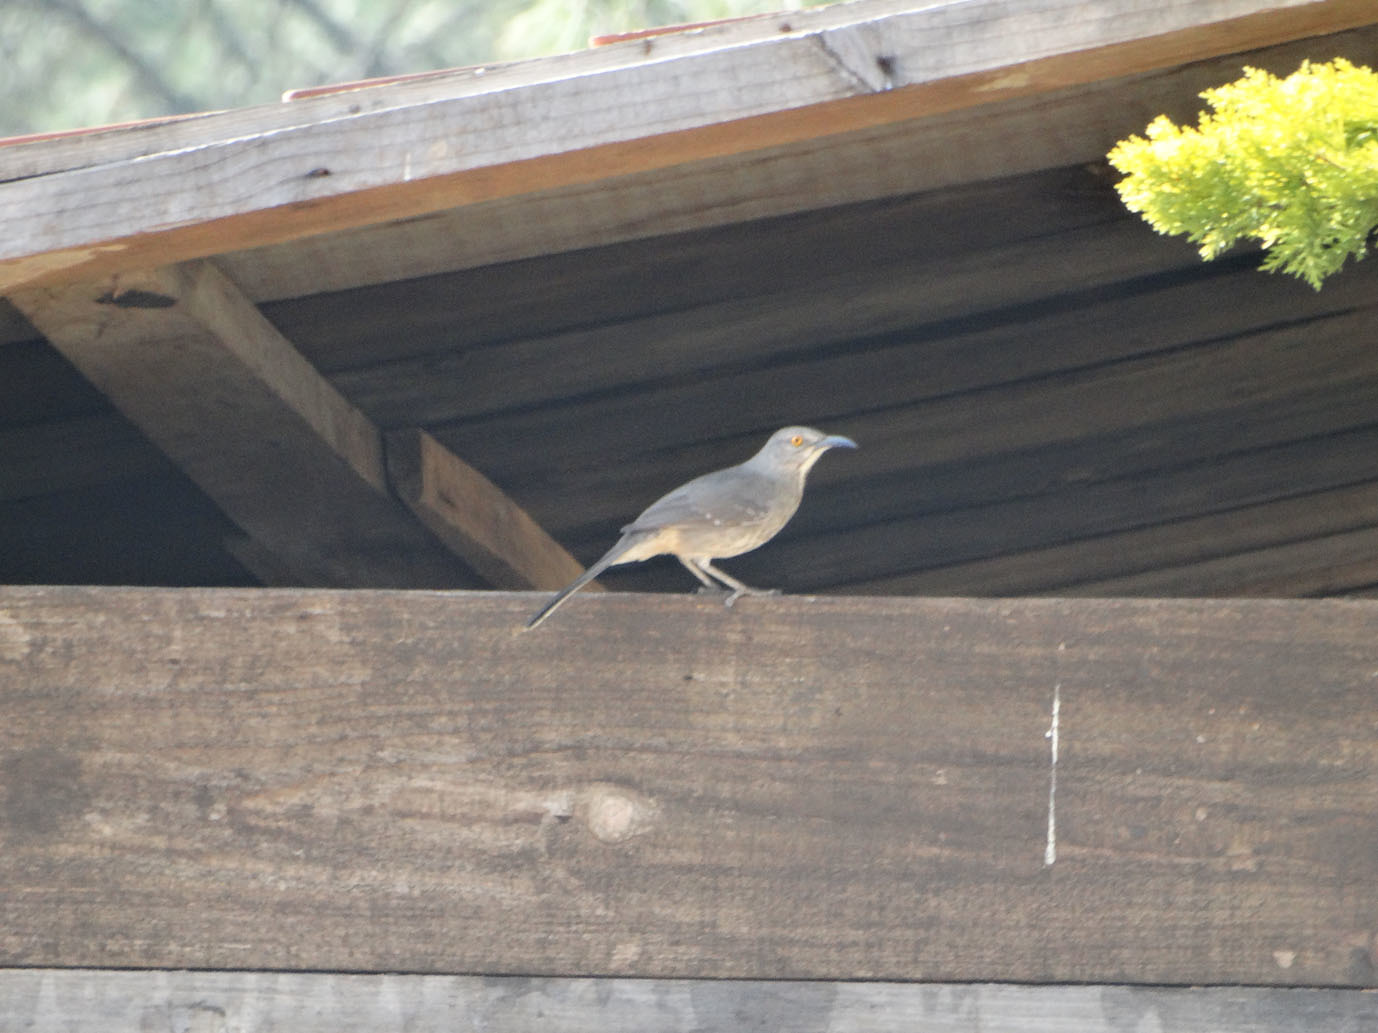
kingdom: Animalia
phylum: Chordata
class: Aves
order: Passeriformes
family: Mimidae
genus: Toxostoma
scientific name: Toxostoma curvirostre
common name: Curve-billed thrasher
